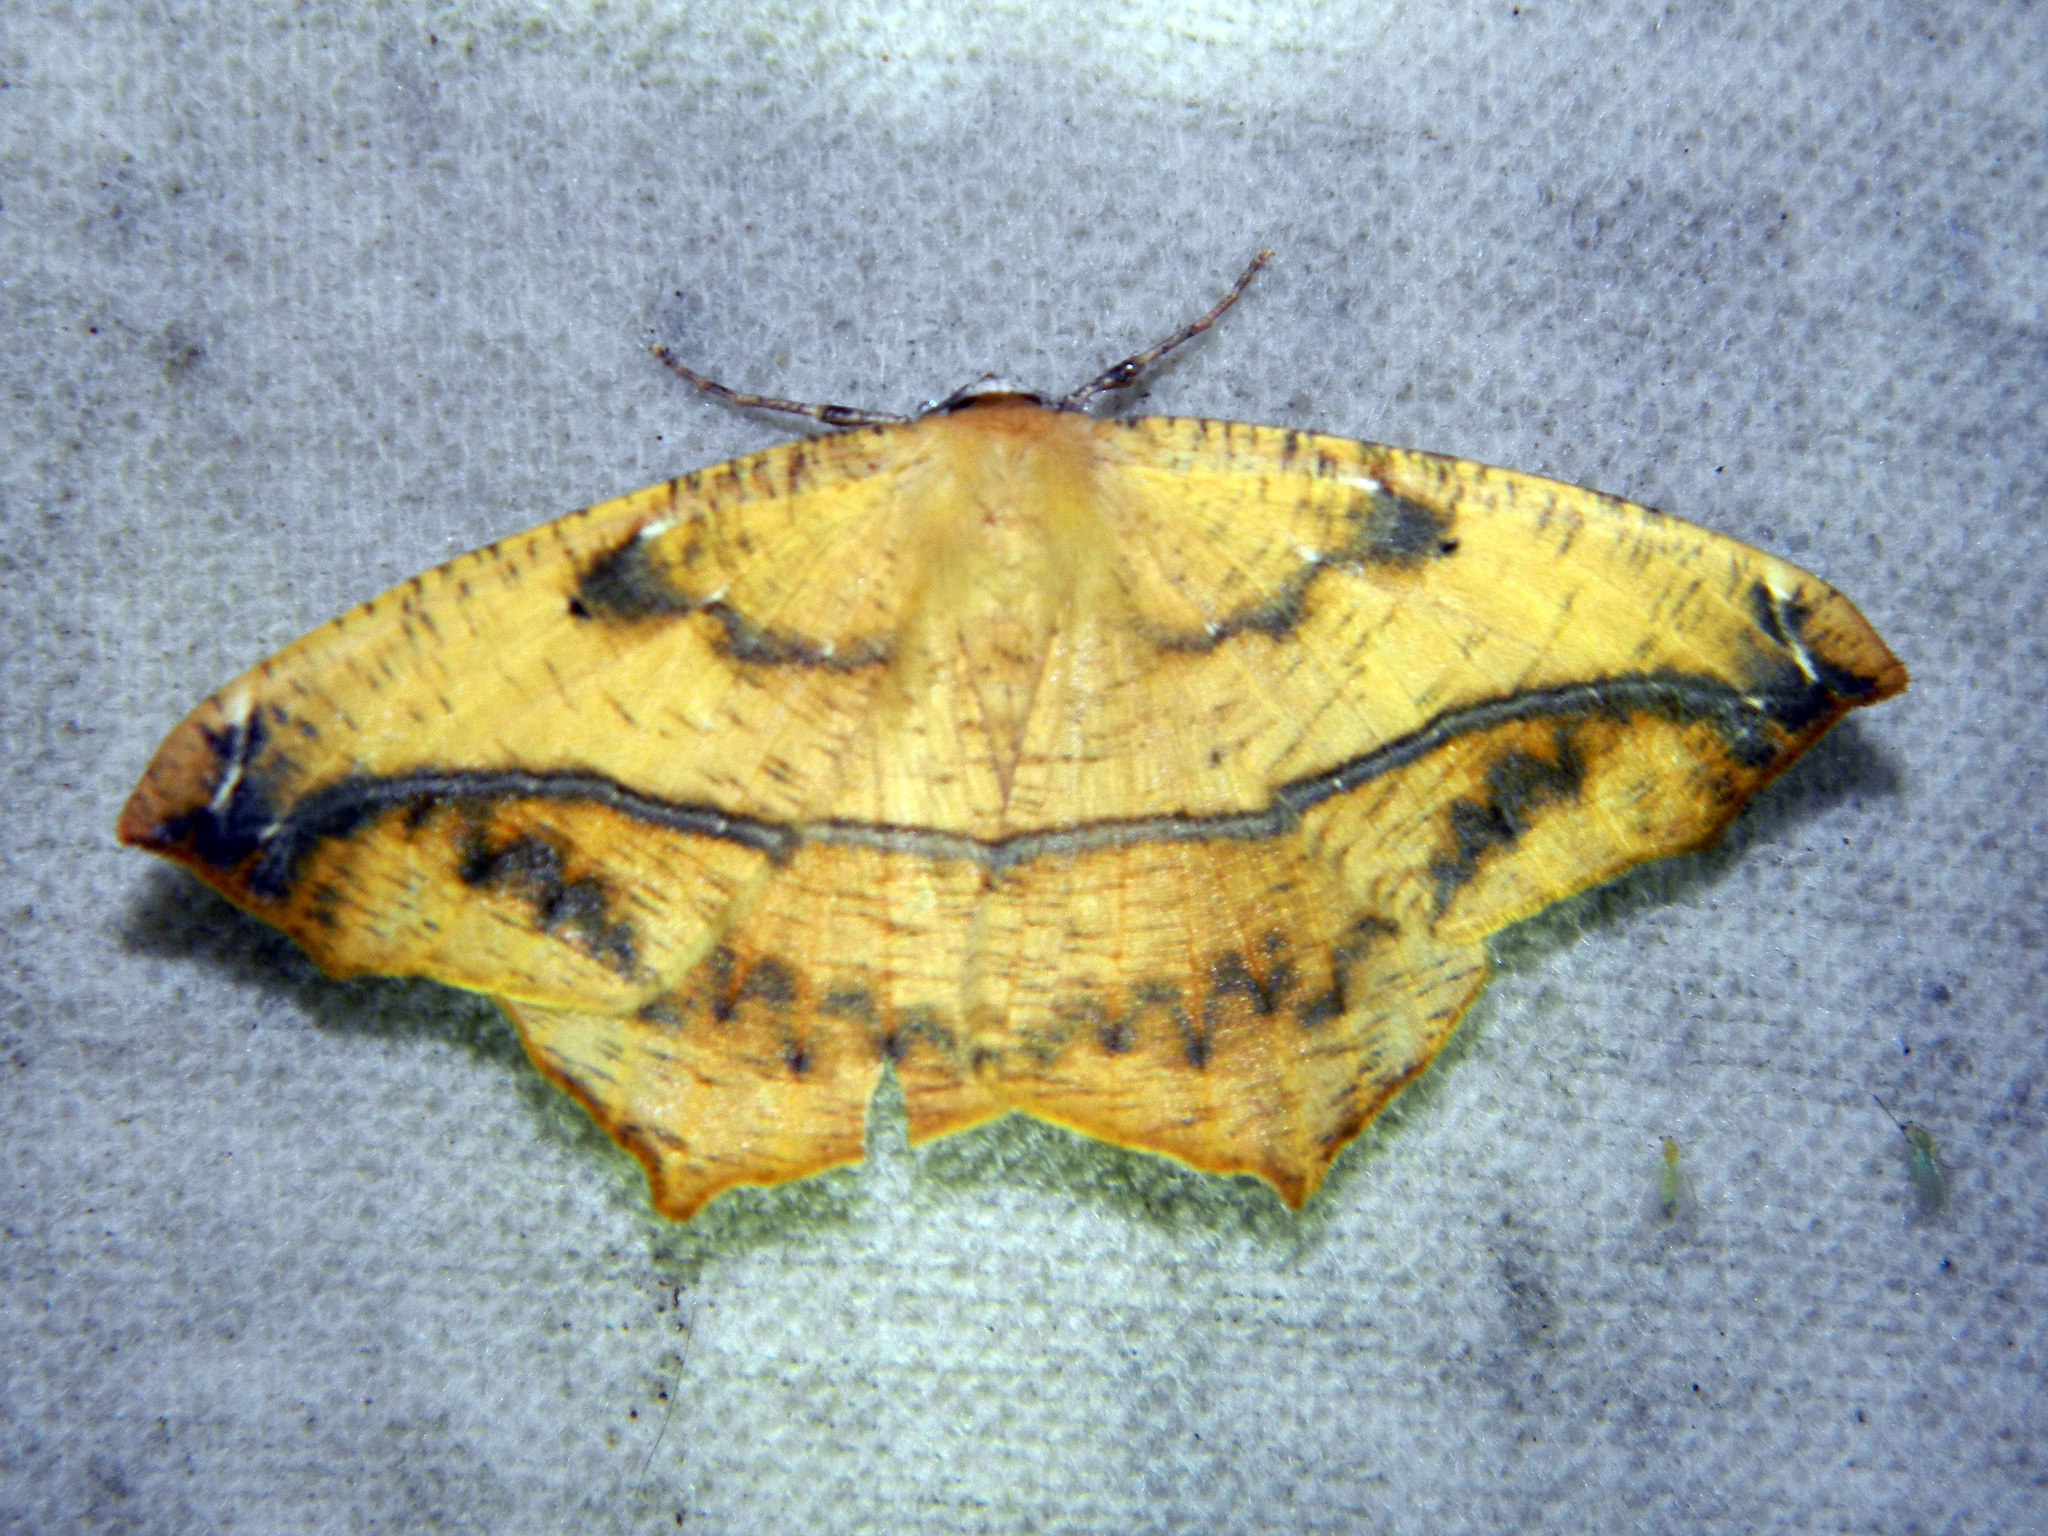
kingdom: Animalia
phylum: Arthropoda
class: Insecta
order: Lepidoptera
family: Geometridae
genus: Prochoerodes
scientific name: Prochoerodes lineola
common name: Large maple spanworm
